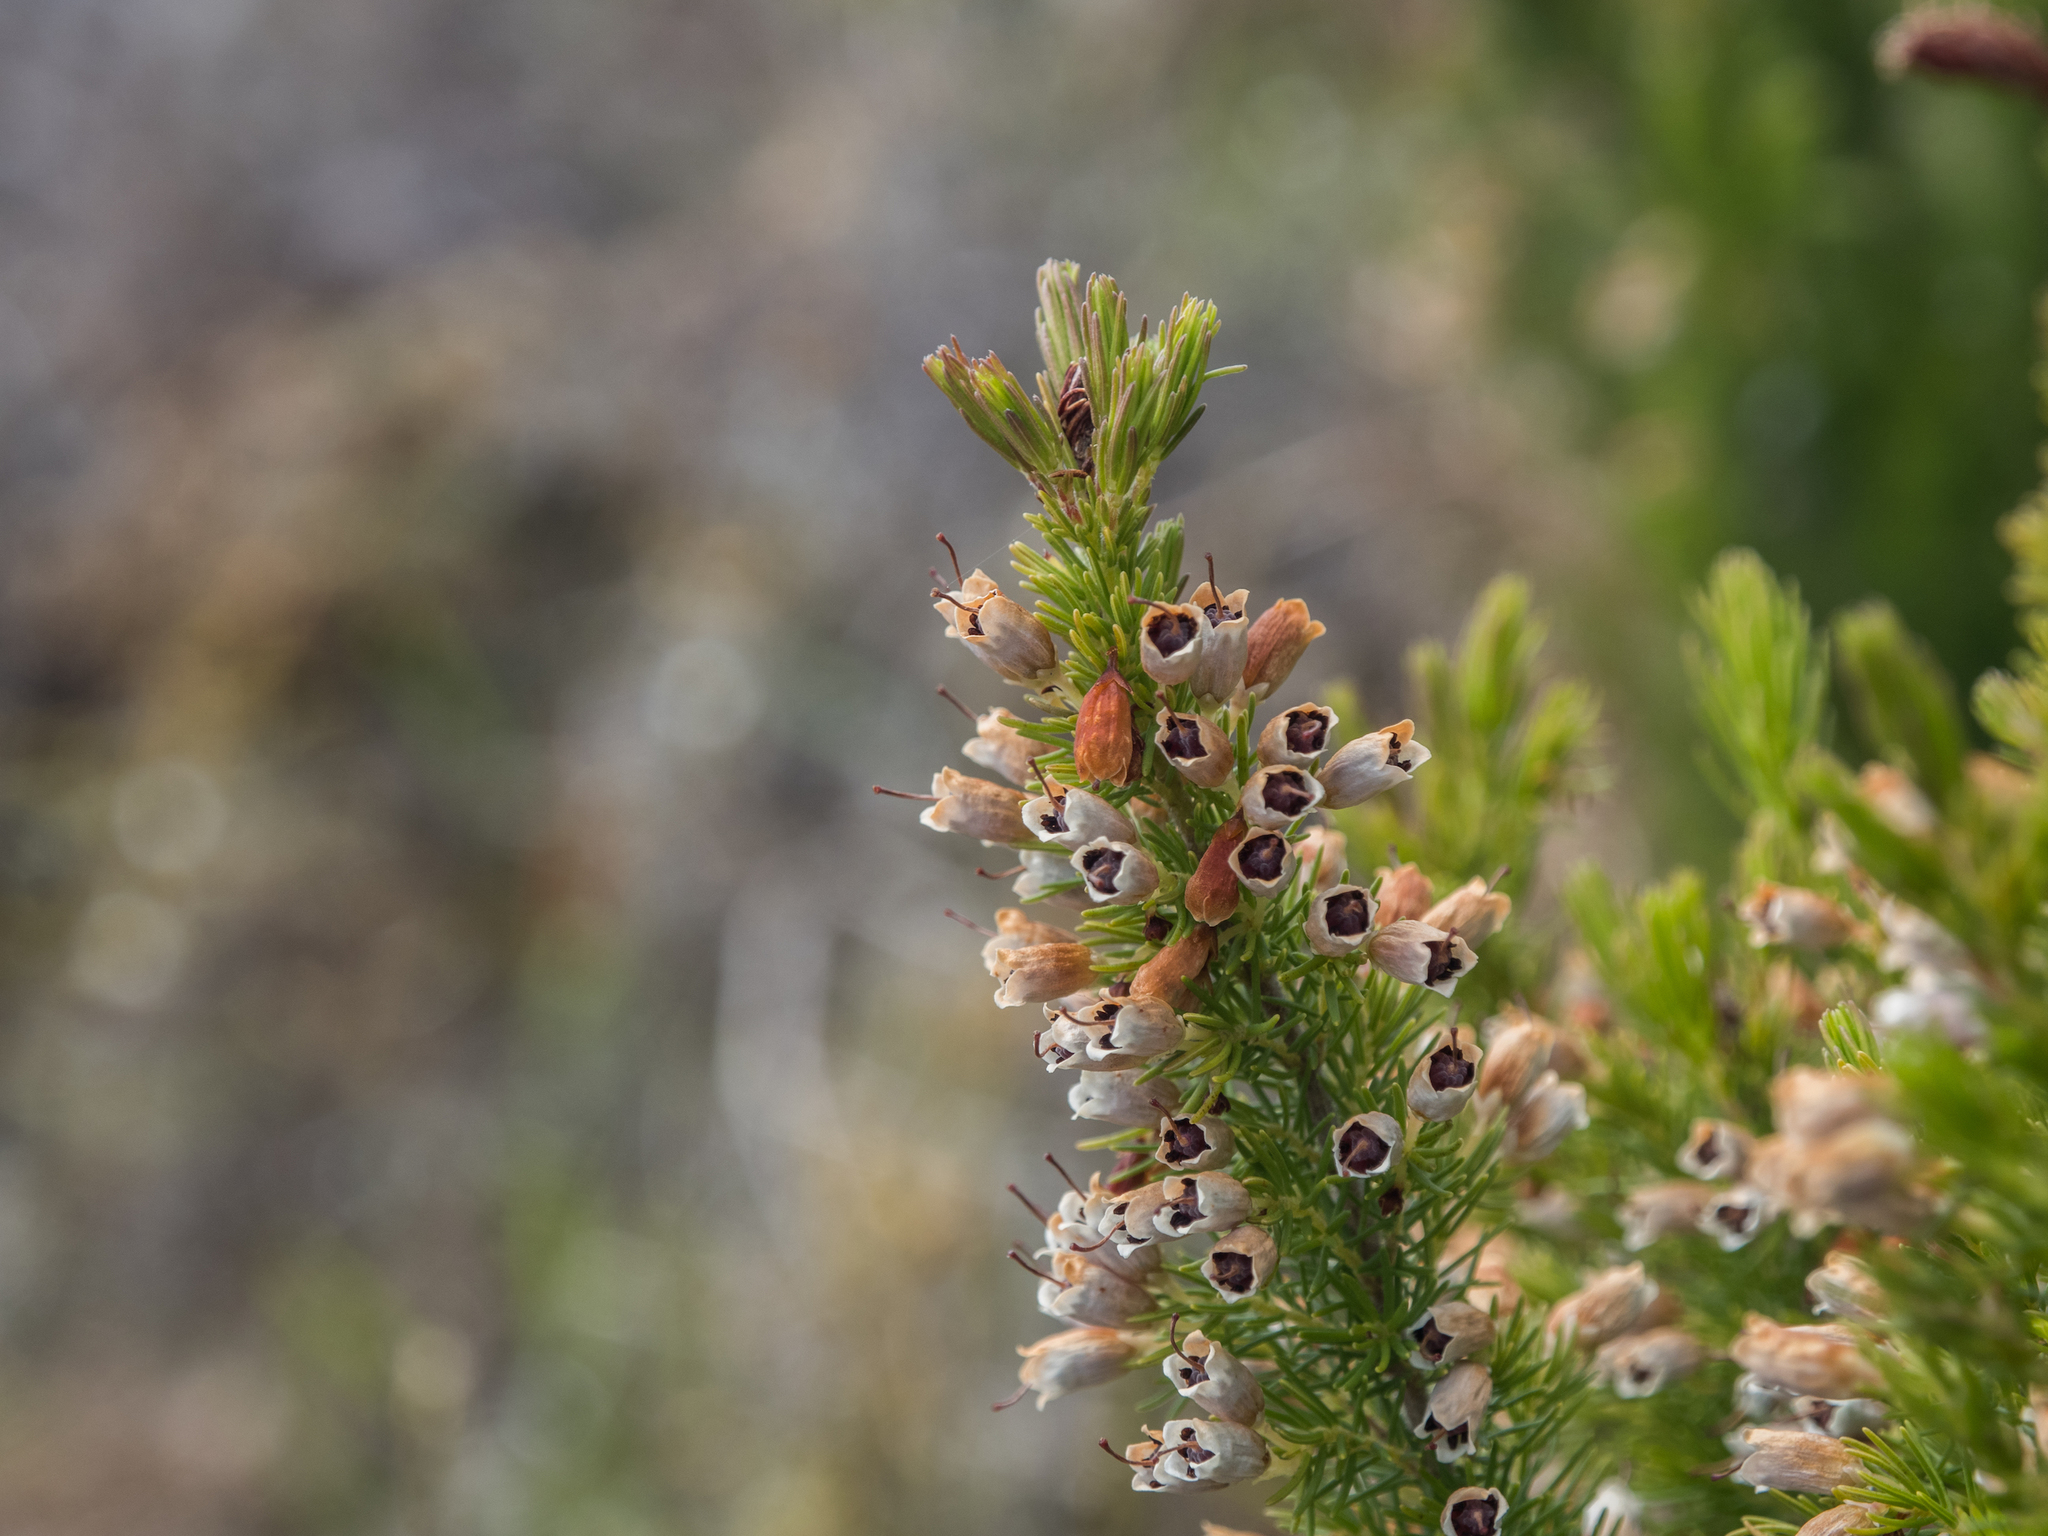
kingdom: Plantae
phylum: Tracheophyta
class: Magnoliopsida
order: Ericales
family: Ericaceae
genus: Erica
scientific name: Erica lusitanica
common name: Spanish heath
